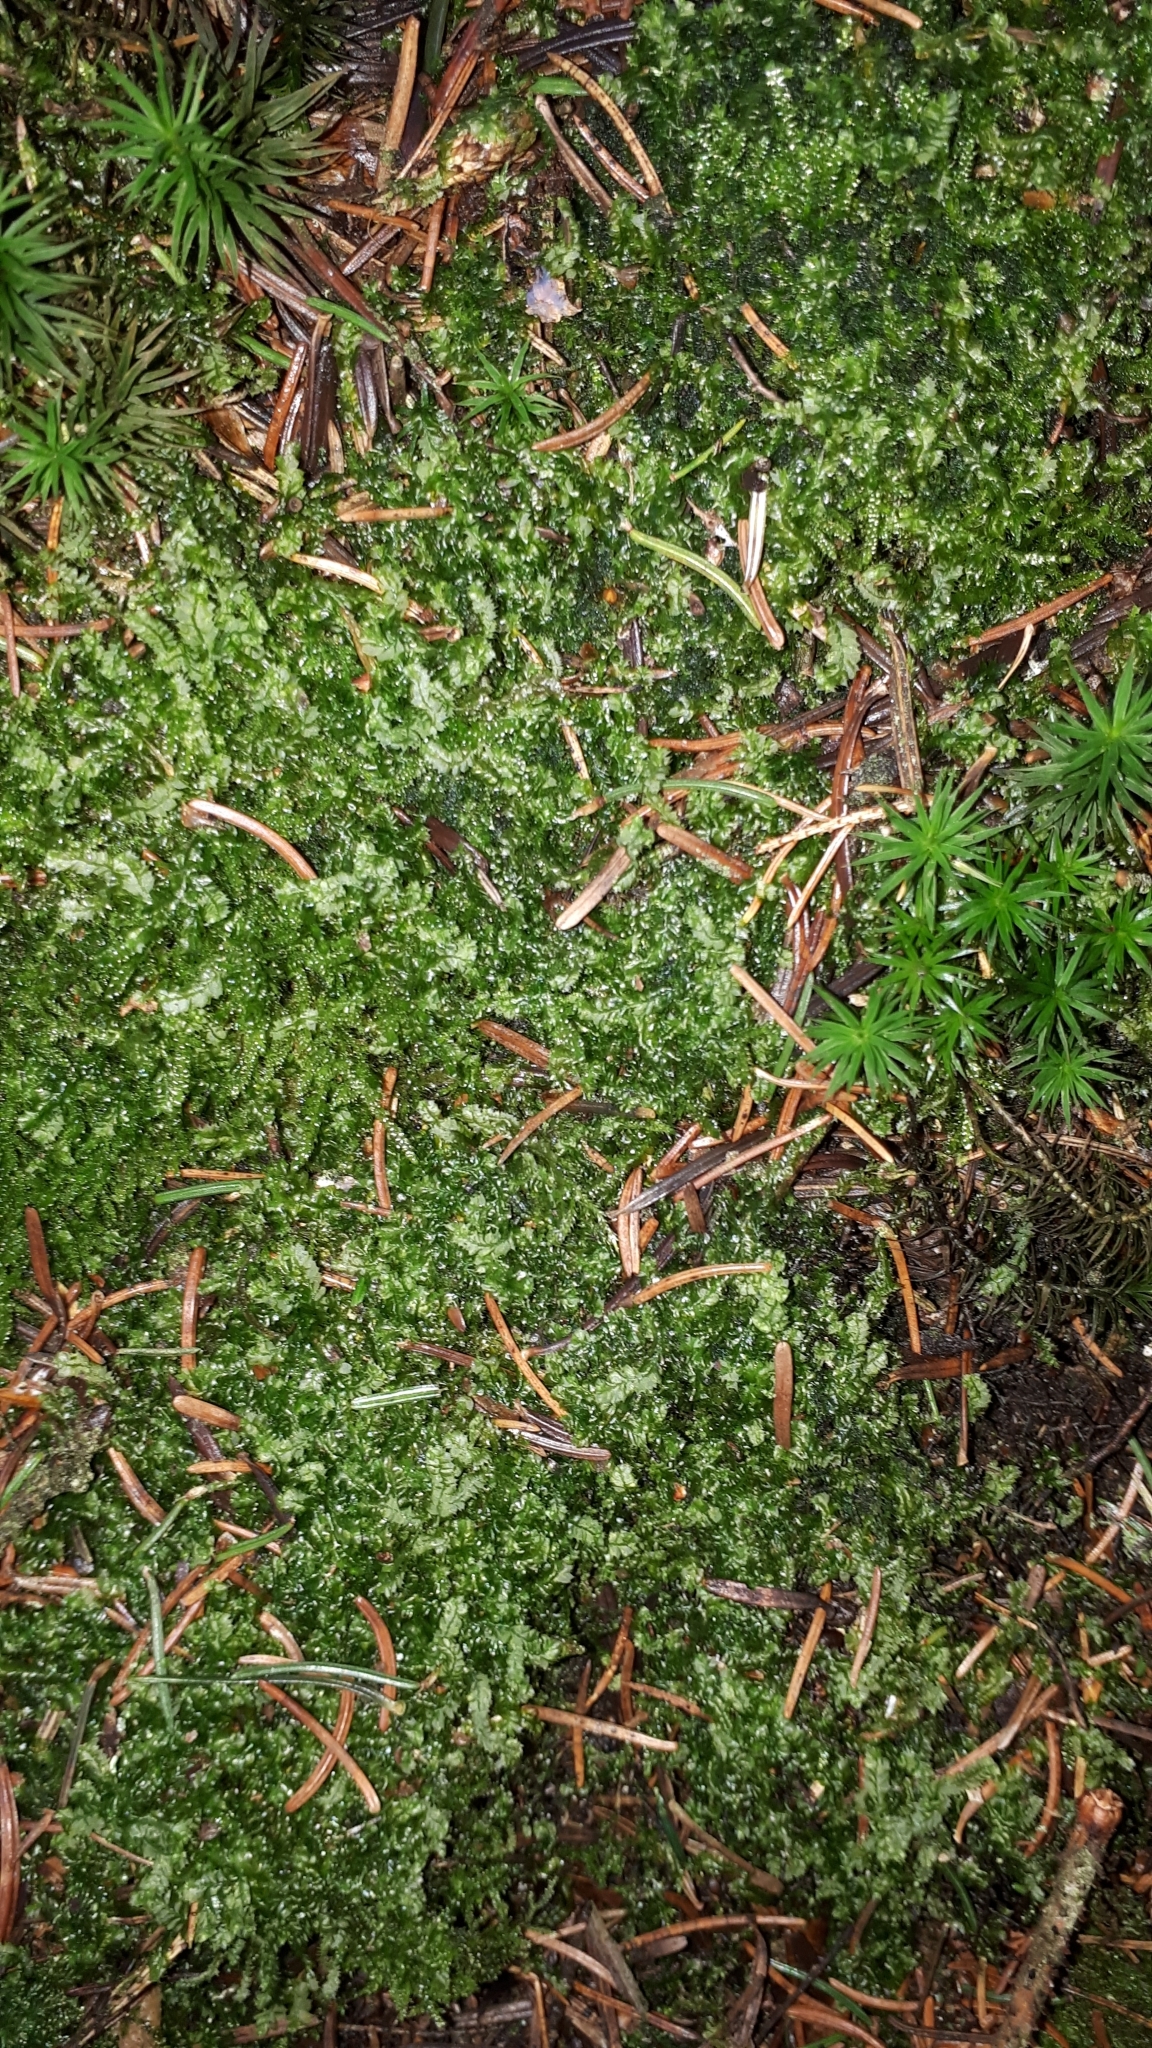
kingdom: Plantae
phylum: Marchantiophyta
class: Jungermanniopsida
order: Jungermanniales
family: Lophocoleaceae
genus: Lophocolea
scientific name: Lophocolea bidentata
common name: Bifid crestwort
